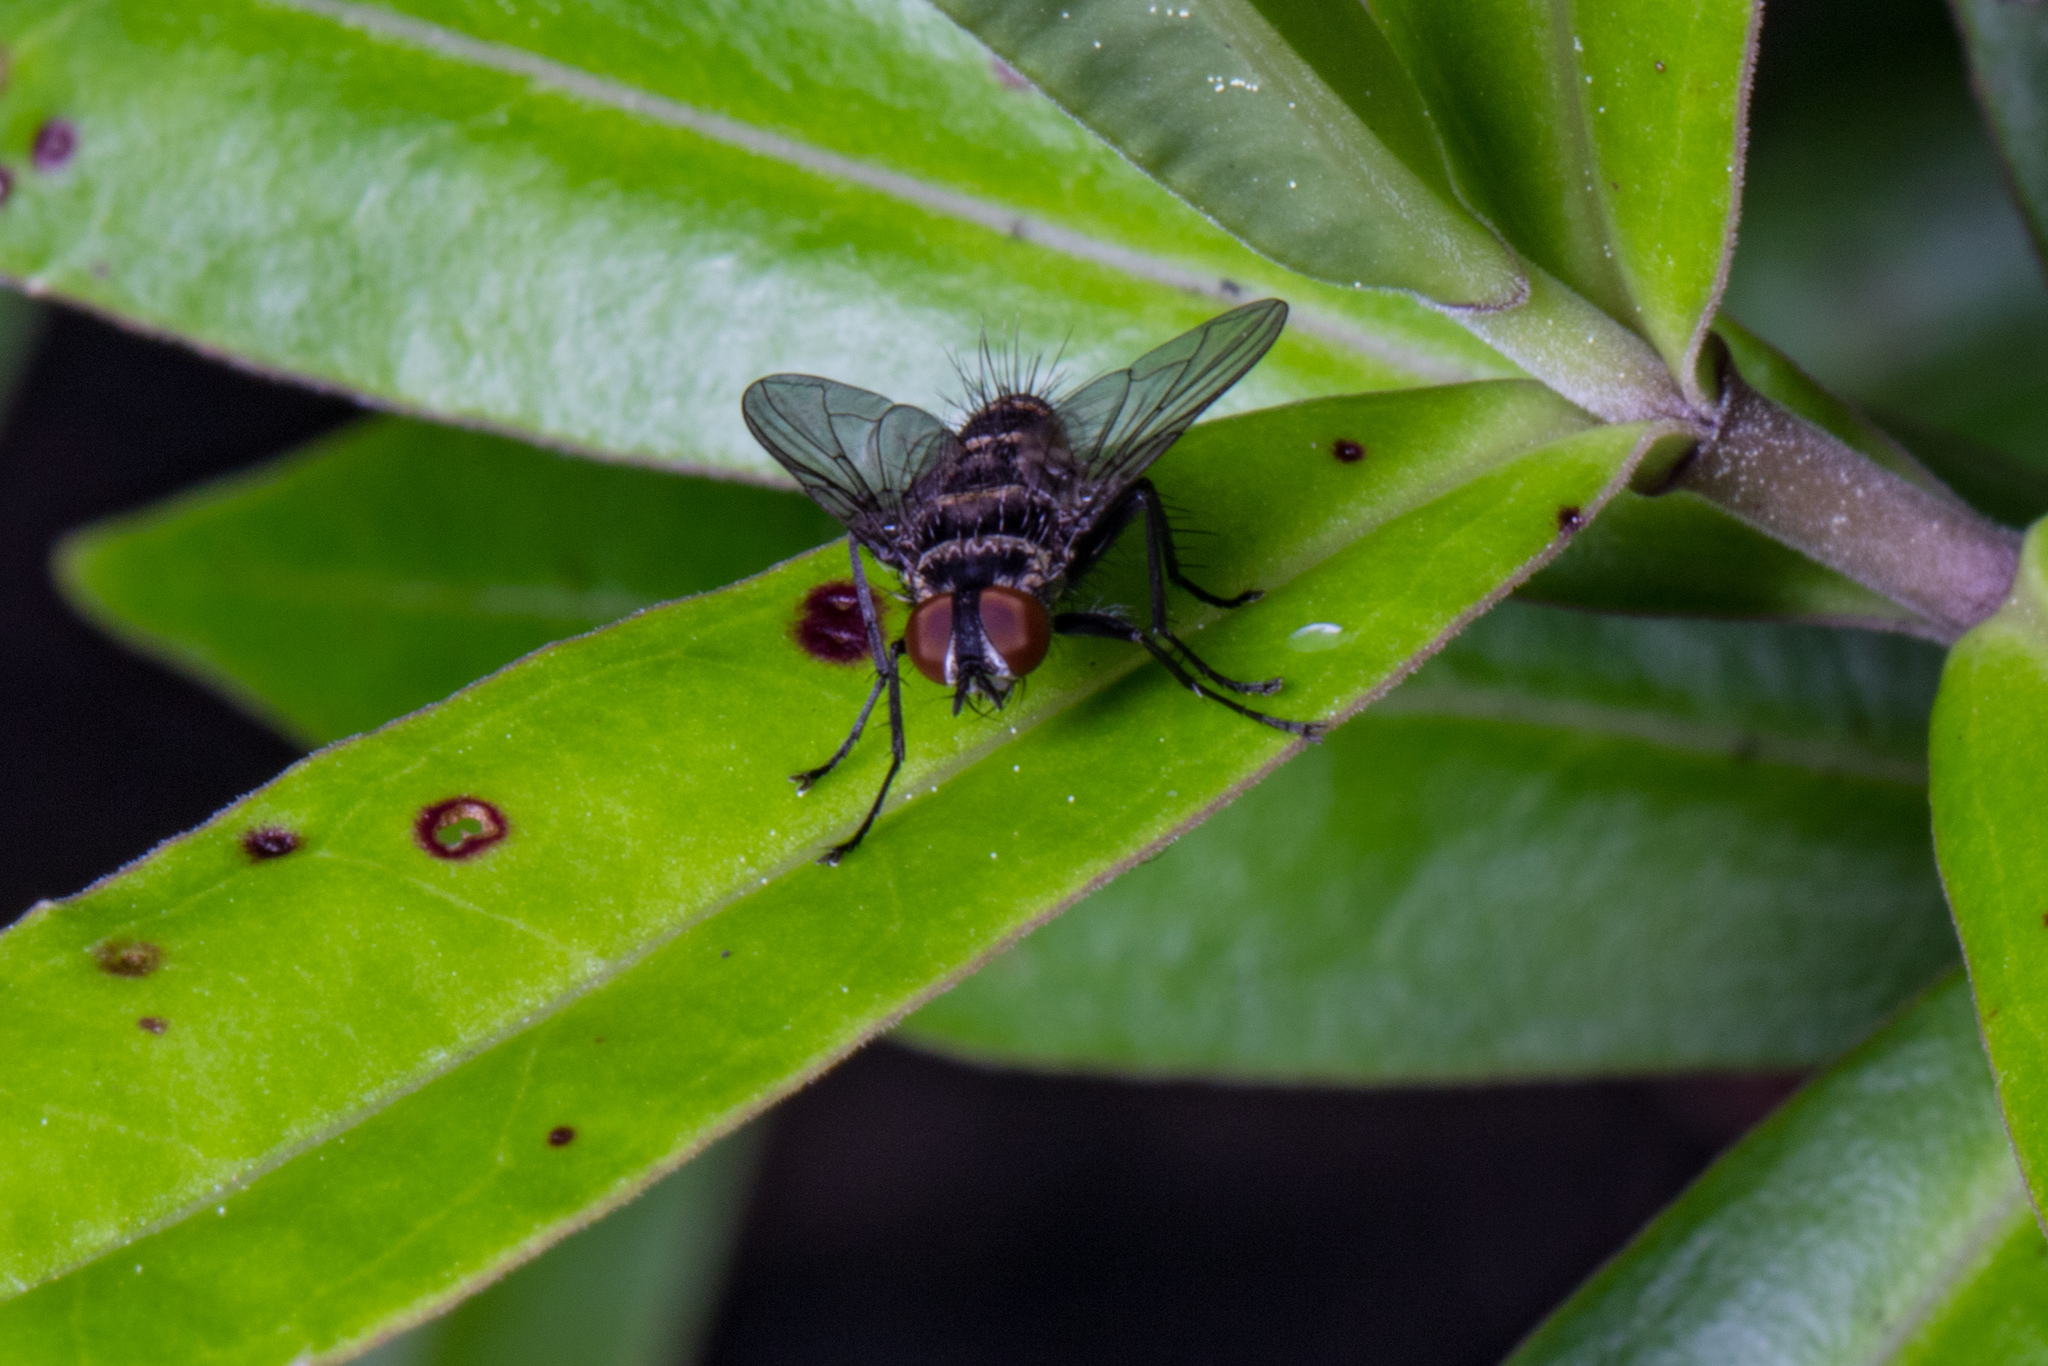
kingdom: Animalia
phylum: Arthropoda
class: Insecta
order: Diptera
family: Tachinidae
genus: Trigonospila
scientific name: Trigonospila brevifacies
